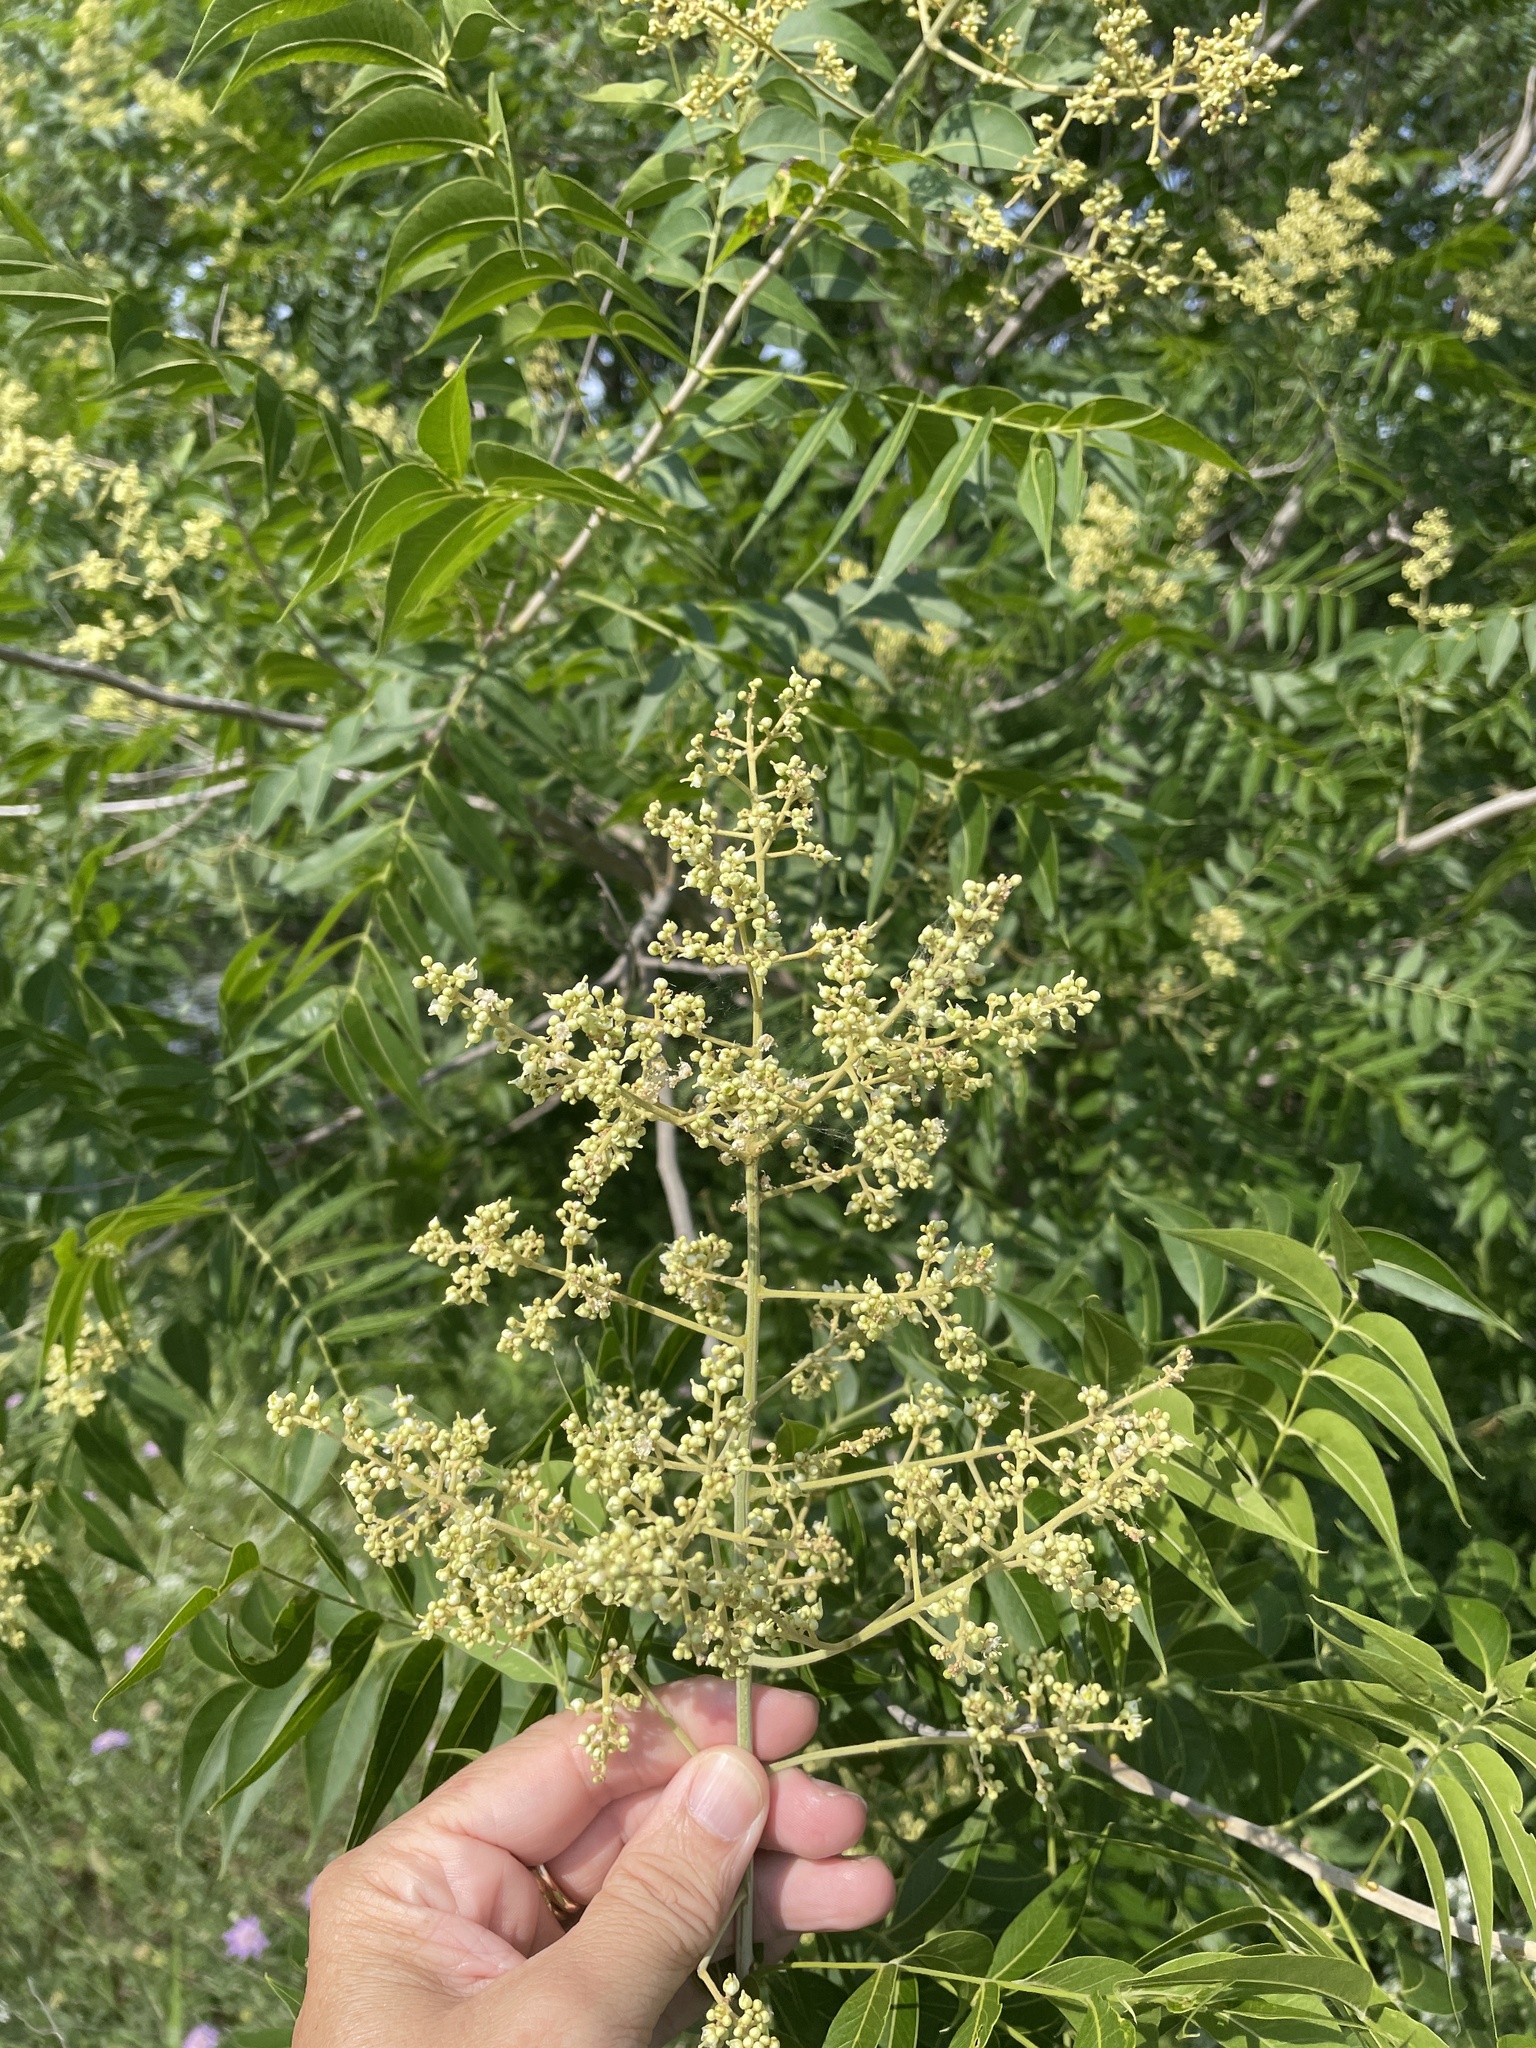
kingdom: Plantae
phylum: Tracheophyta
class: Magnoliopsida
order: Sapindales
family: Sapindaceae
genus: Sapindus
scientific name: Sapindus drummondii
